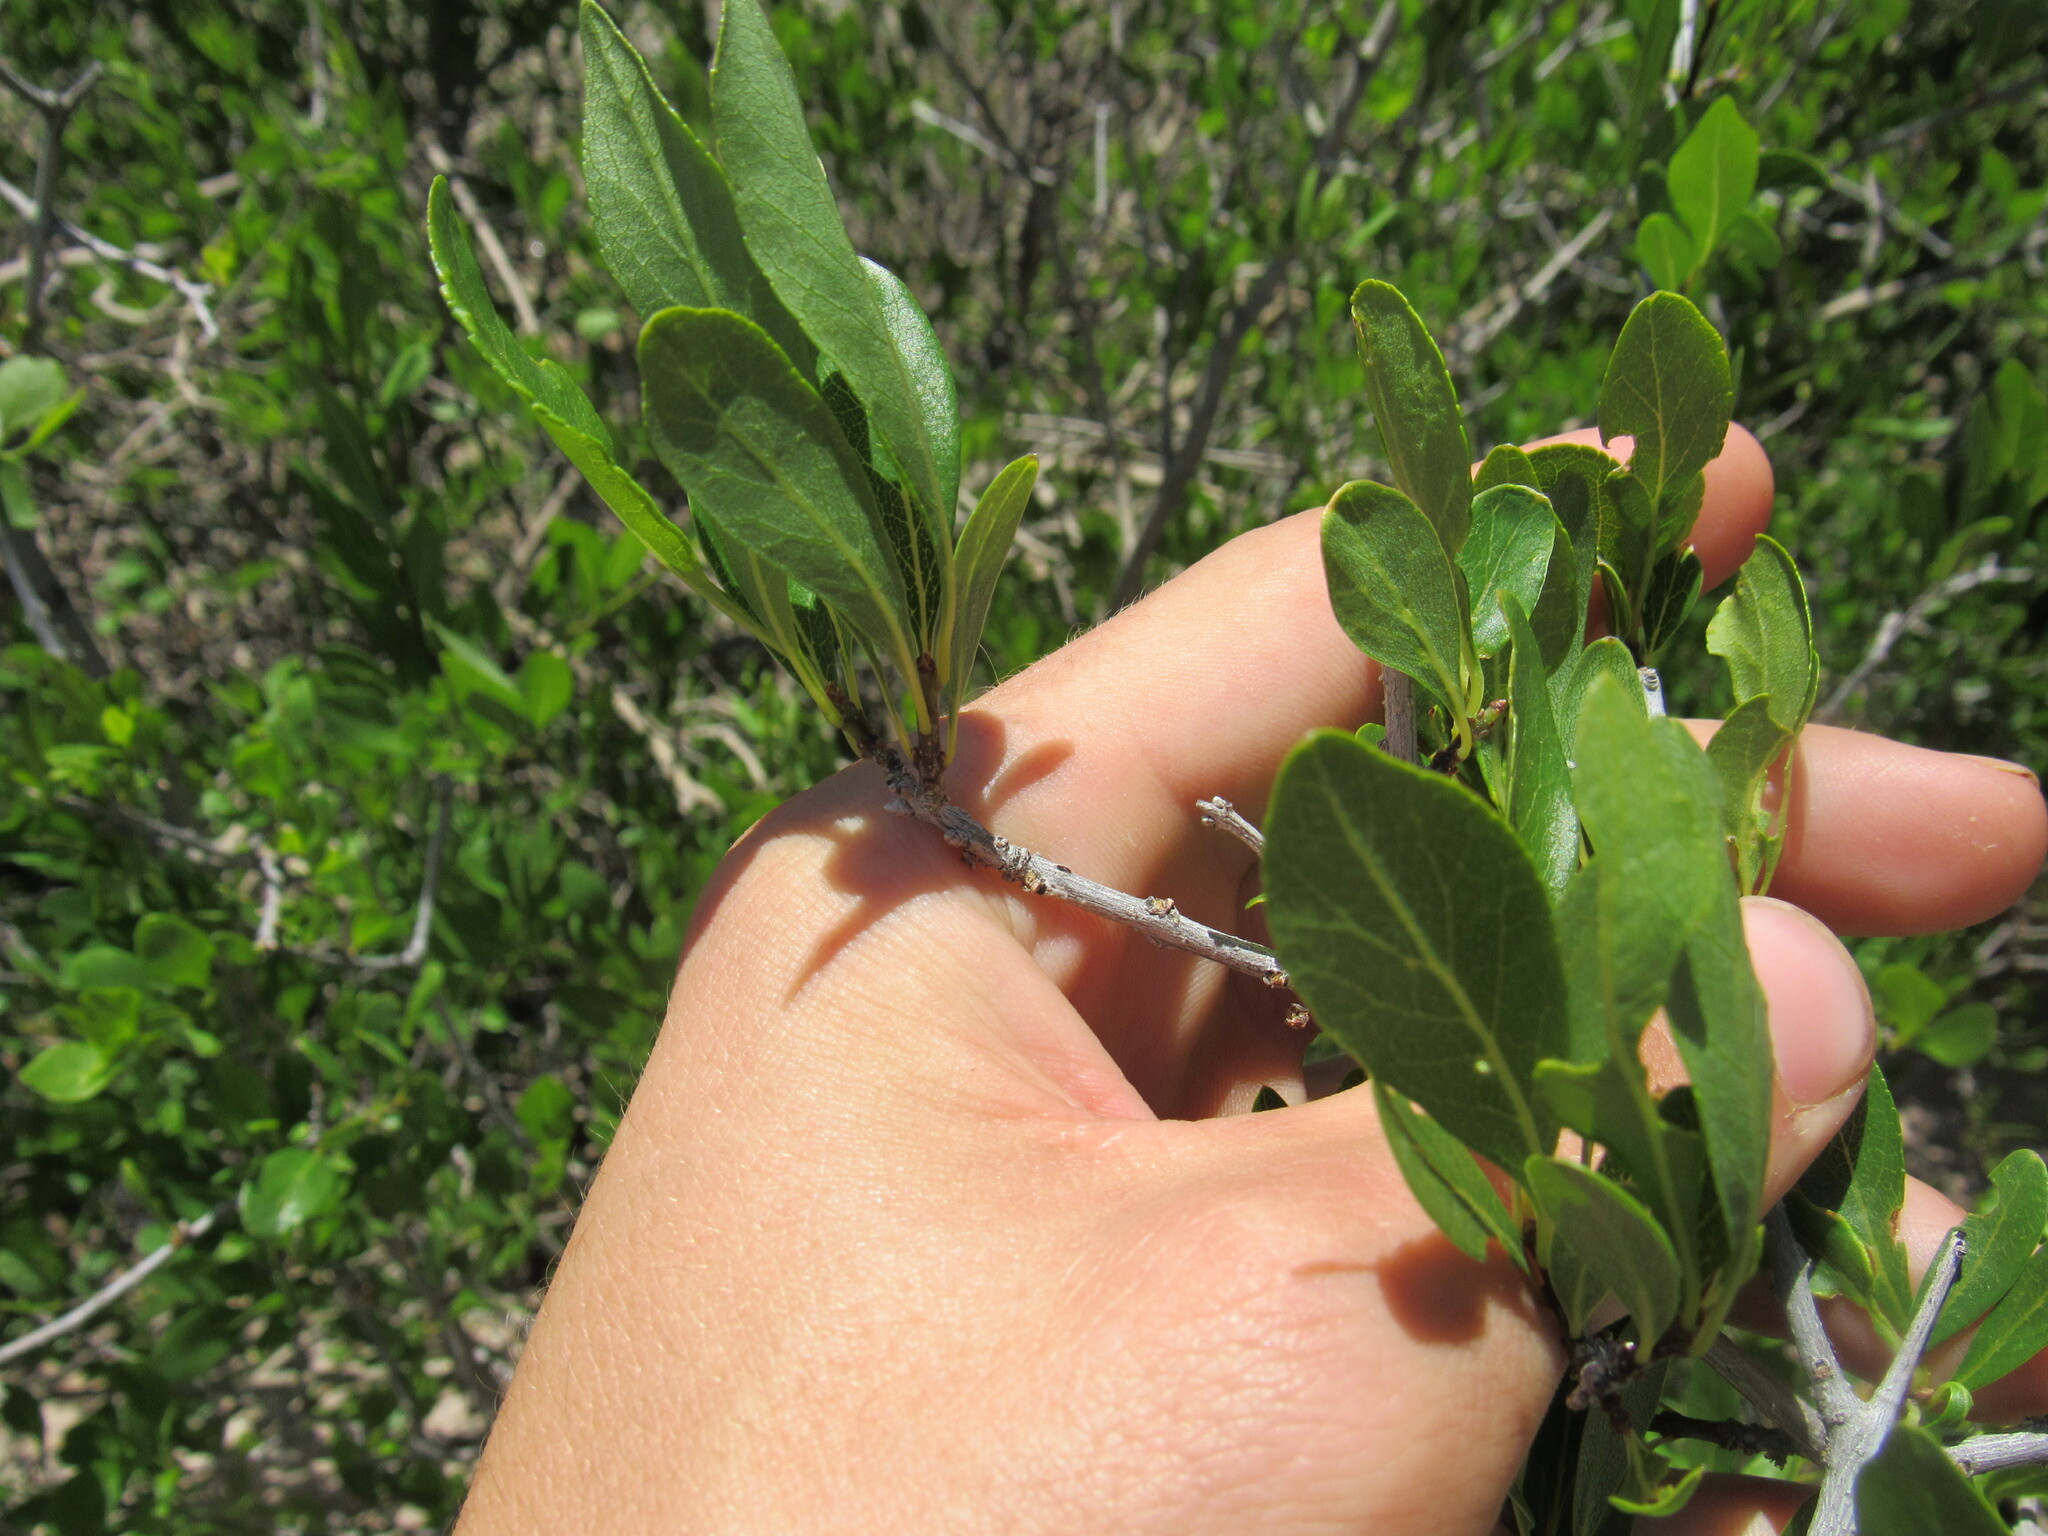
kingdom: Plantae
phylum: Tracheophyta
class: Magnoliopsida
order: Lamiales
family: Oleaceae
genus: Forestiera
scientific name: Forestiera pubescens
